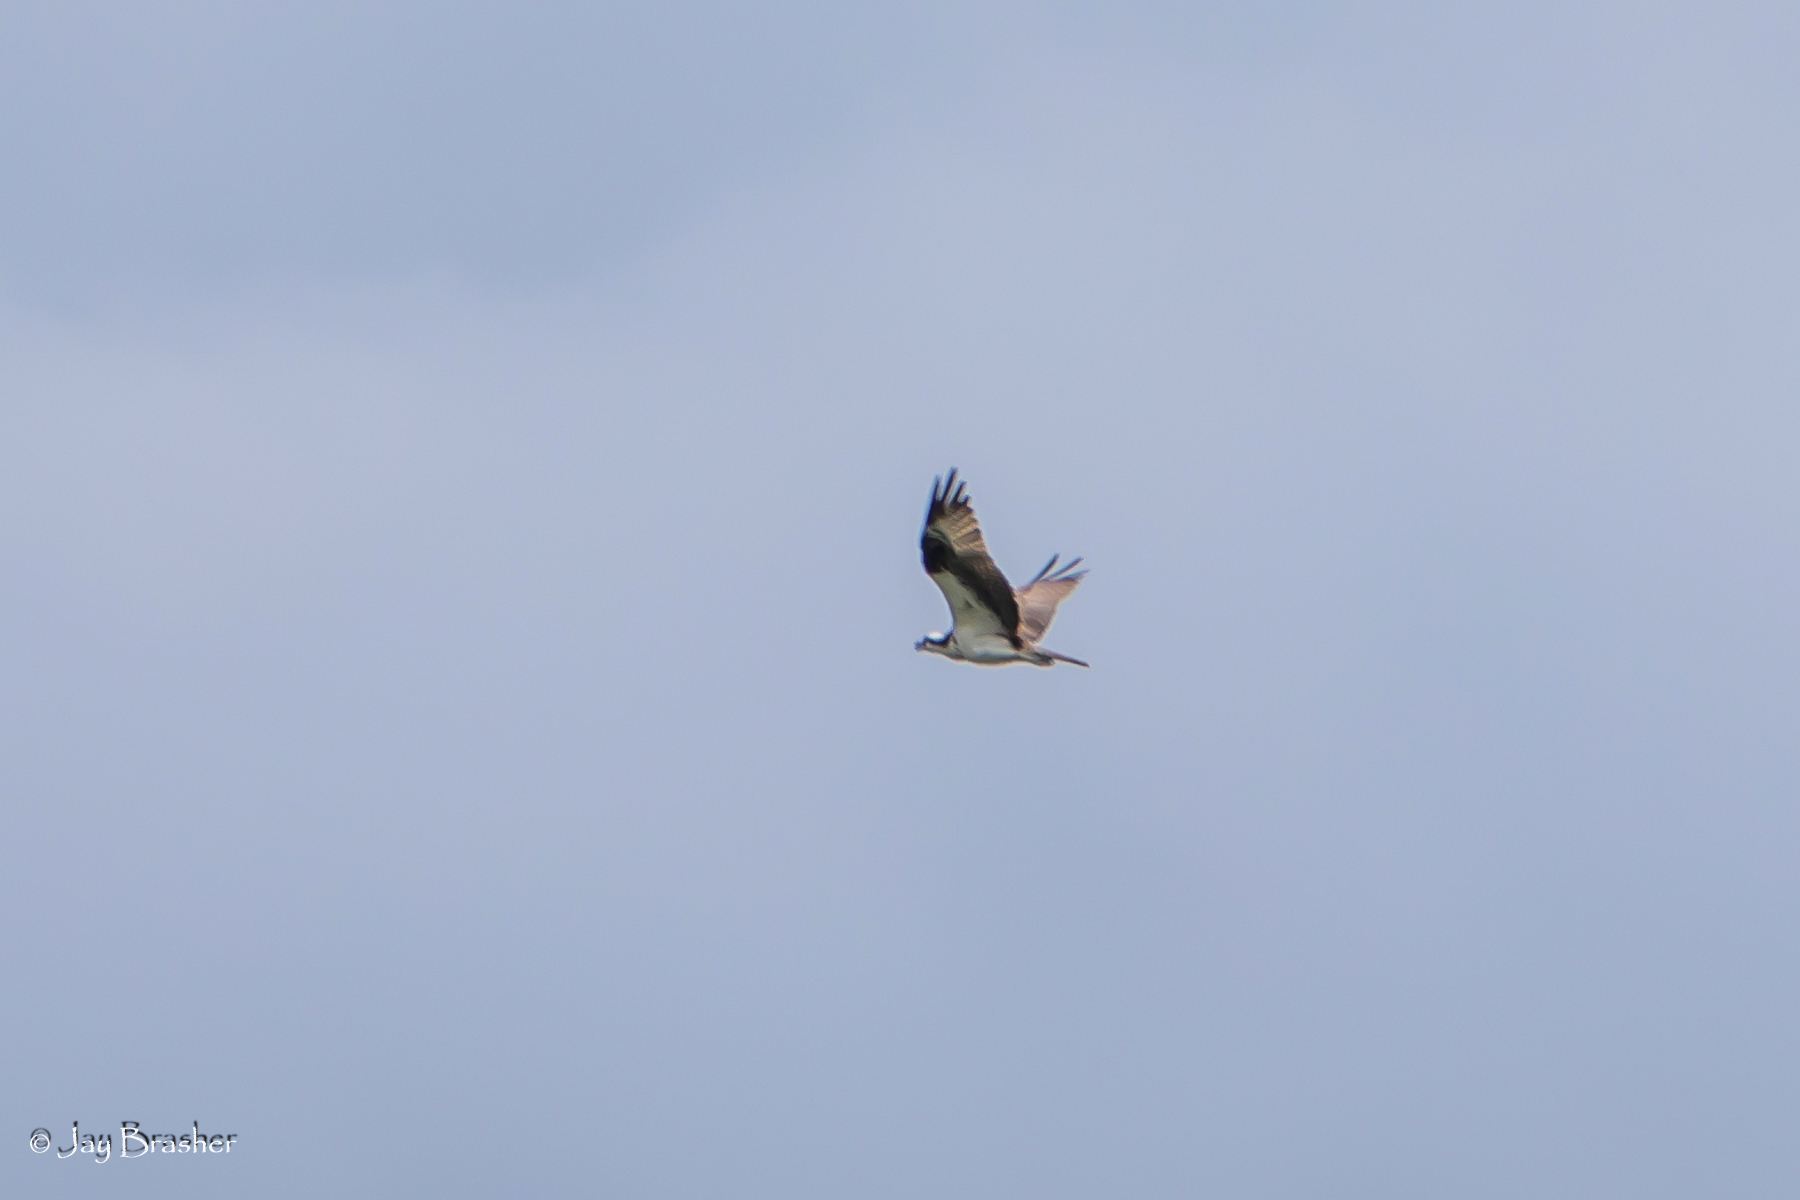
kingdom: Animalia
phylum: Chordata
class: Aves
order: Accipitriformes
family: Pandionidae
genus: Pandion
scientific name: Pandion haliaetus
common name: Osprey
